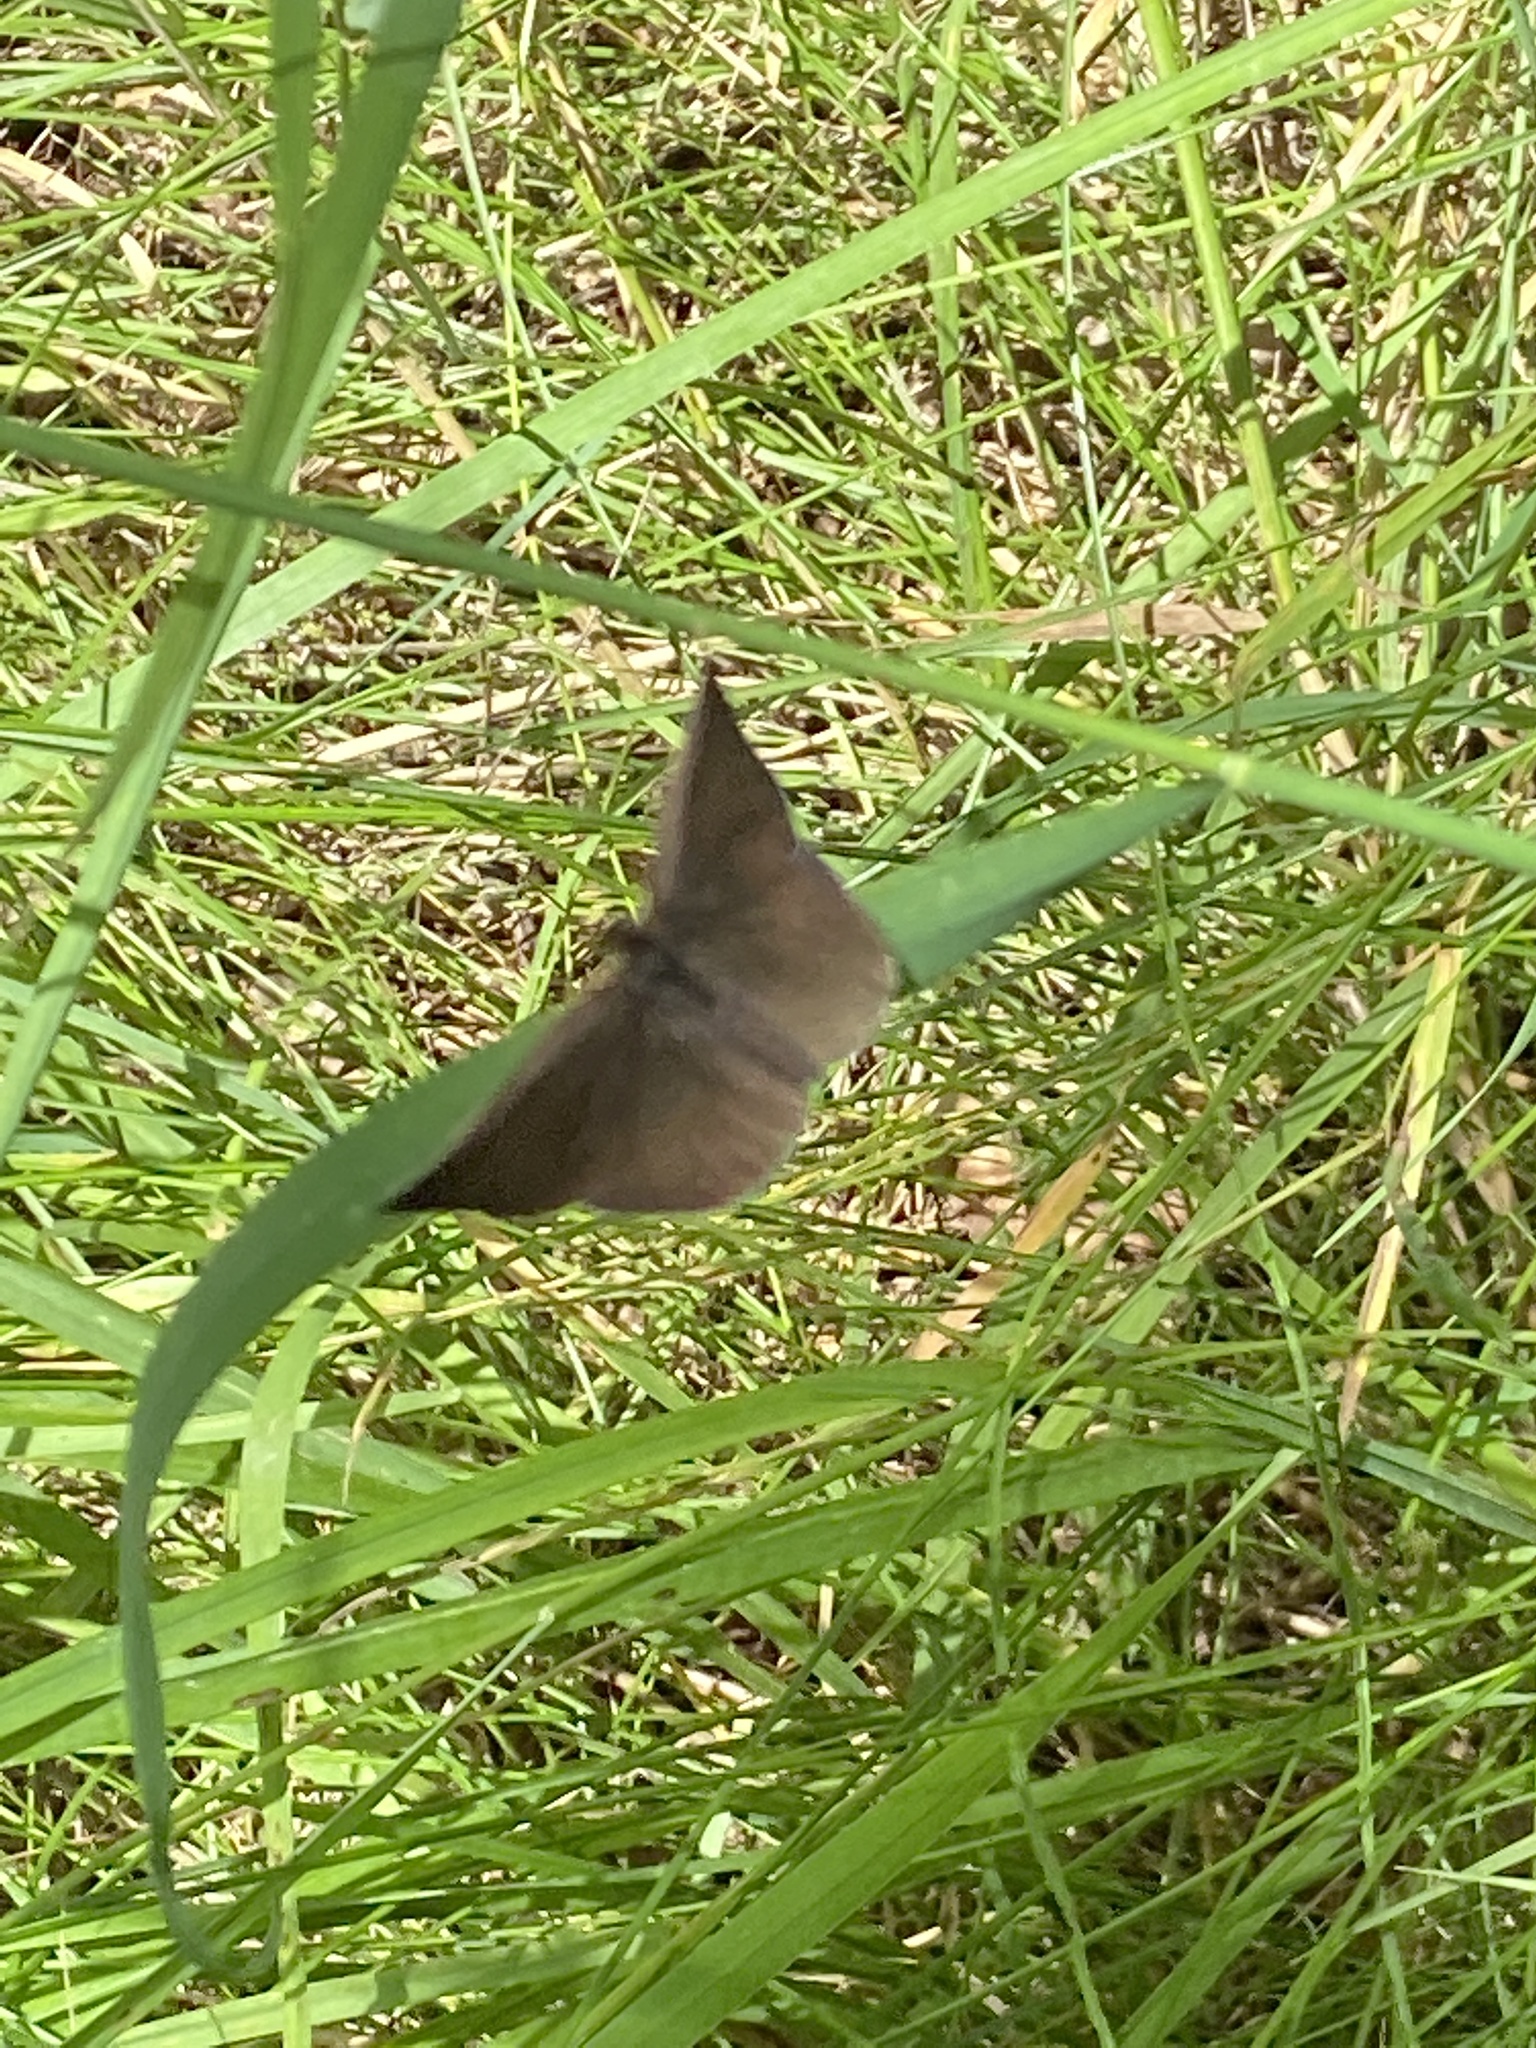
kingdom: Animalia
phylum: Arthropoda
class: Insecta
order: Lepidoptera
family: Geometridae
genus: Odezia
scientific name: Odezia atrata
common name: Chimney sweeper
